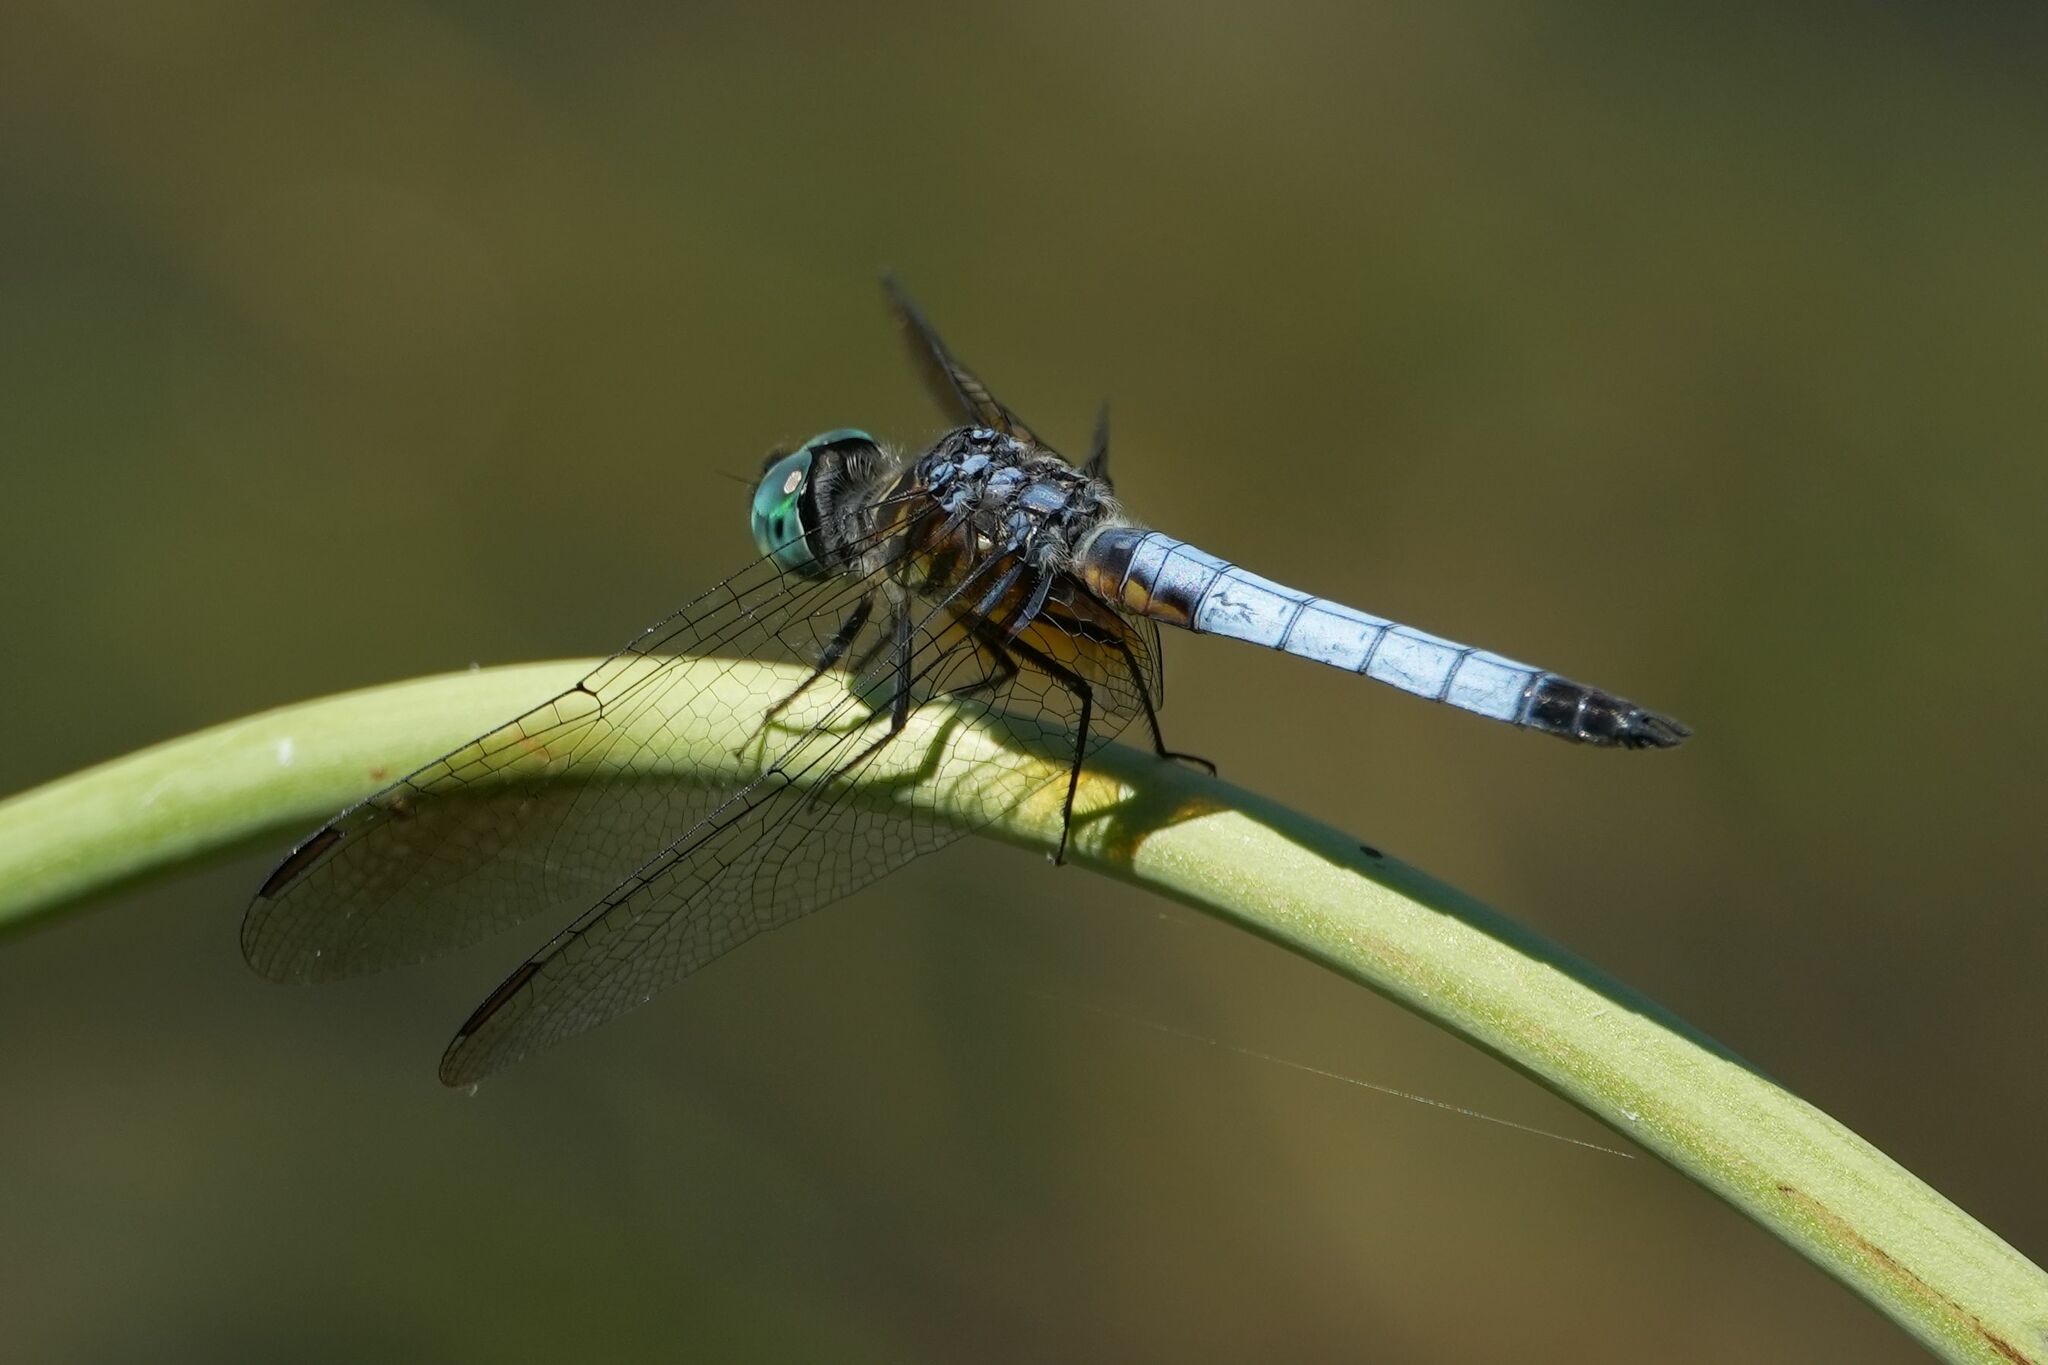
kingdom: Animalia
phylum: Arthropoda
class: Insecta
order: Odonata
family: Libellulidae
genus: Pachydiplax
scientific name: Pachydiplax longipennis
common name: Blue dasher
